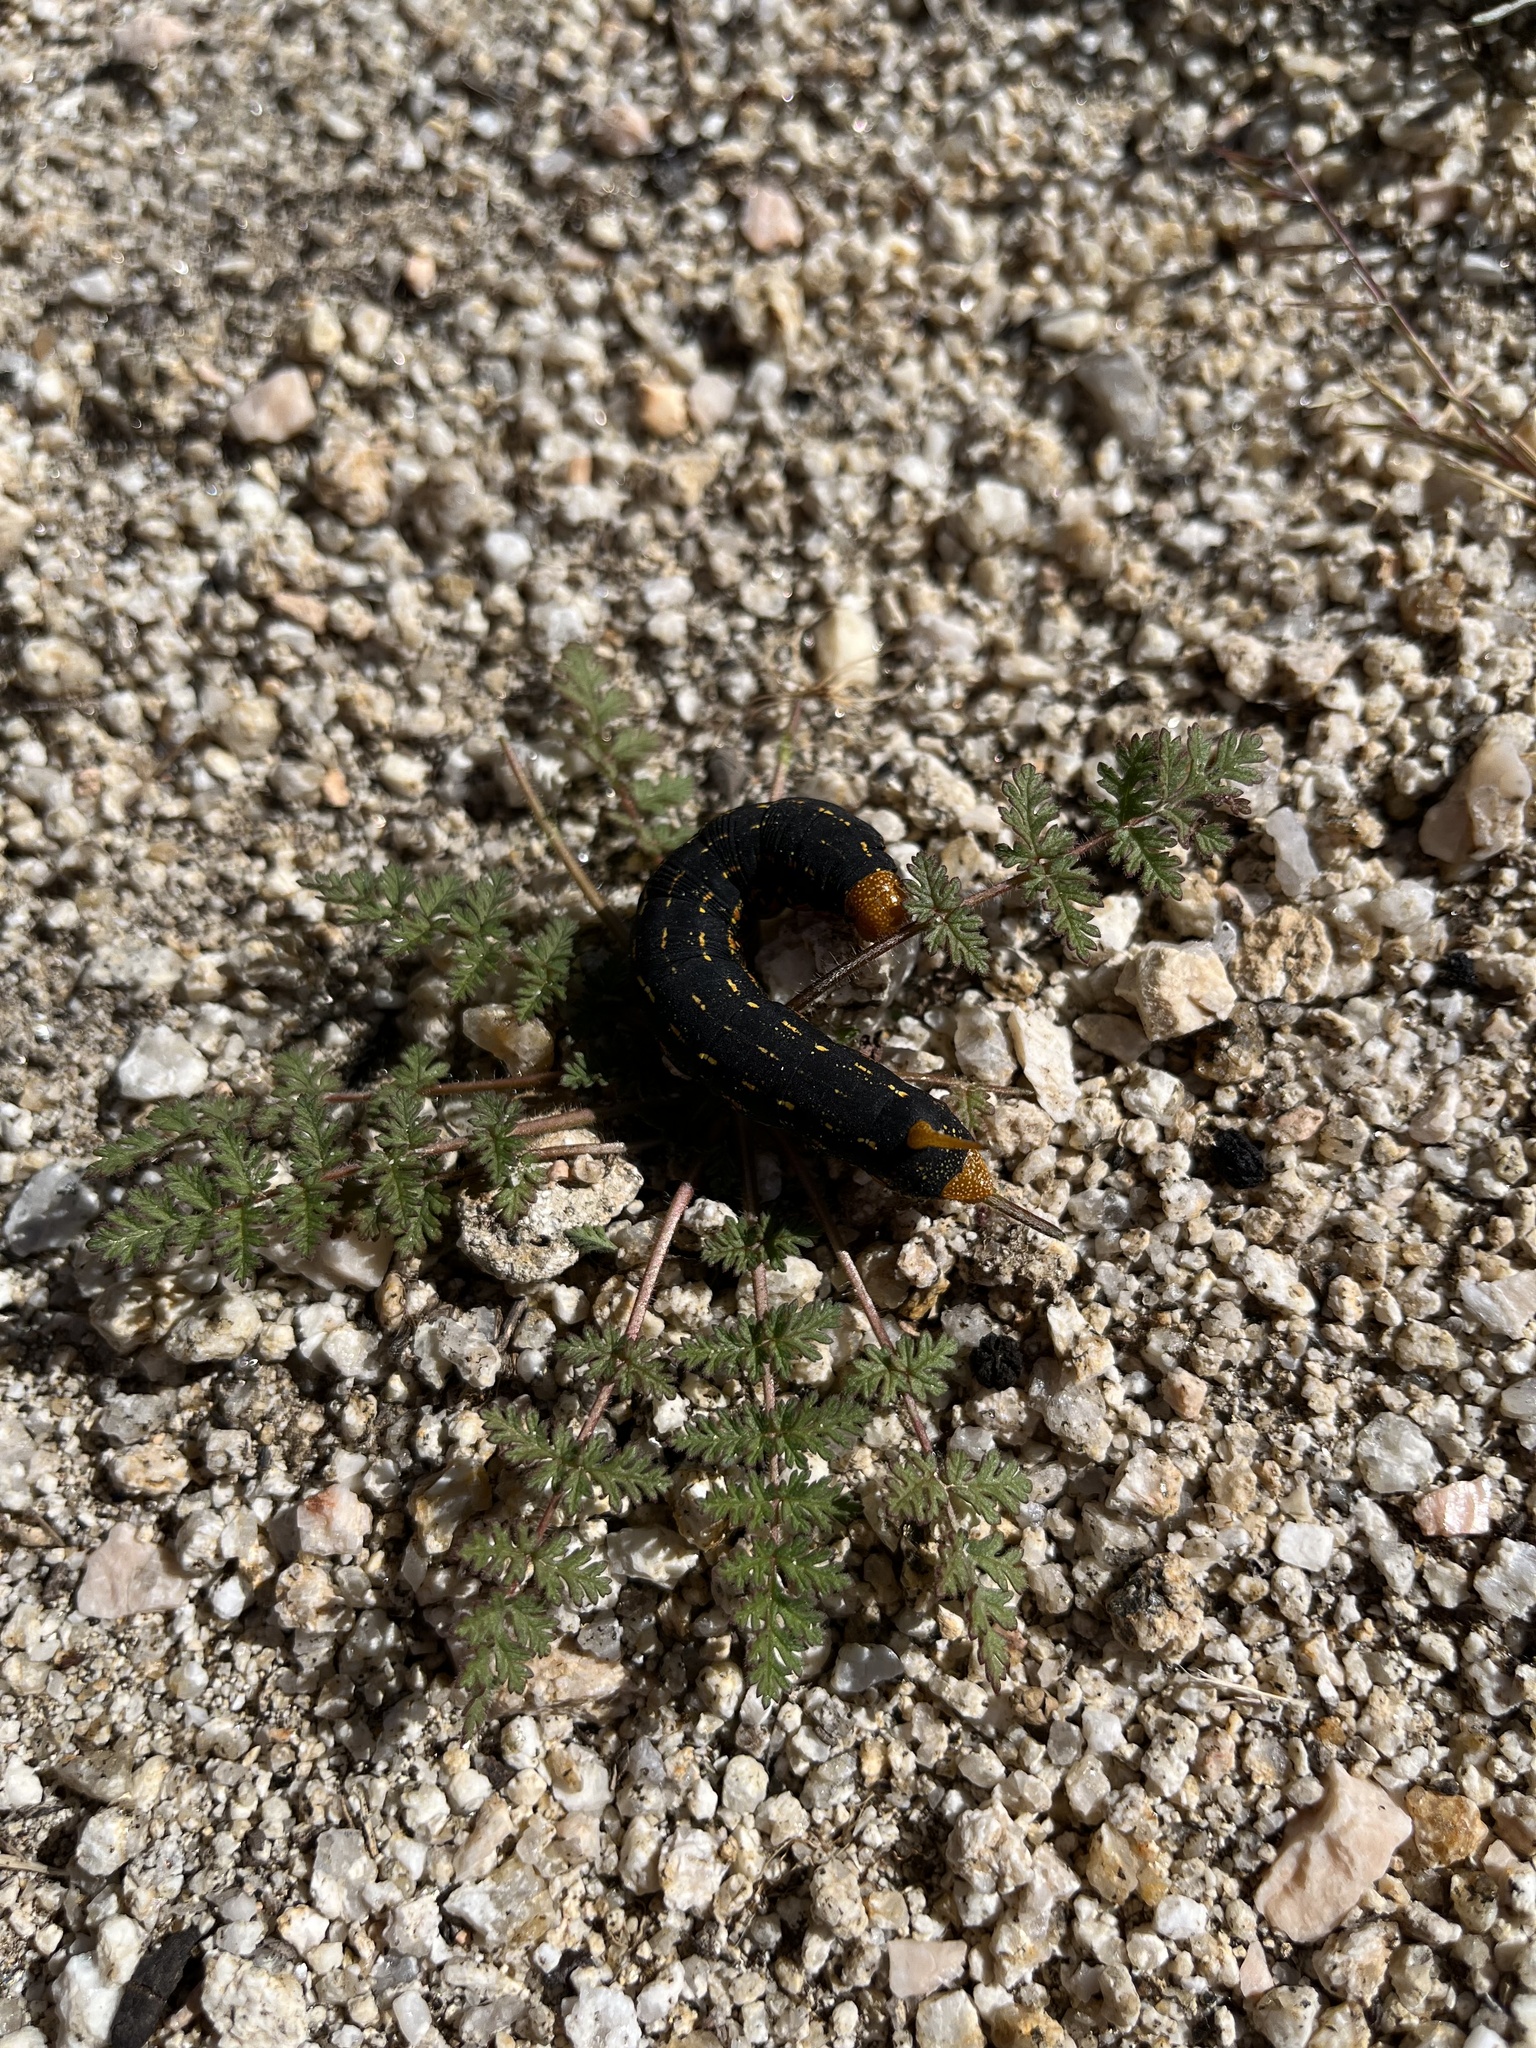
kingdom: Animalia
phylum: Arthropoda
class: Insecta
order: Lepidoptera
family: Sphingidae
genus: Hyles
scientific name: Hyles lineata
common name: White-lined sphinx
